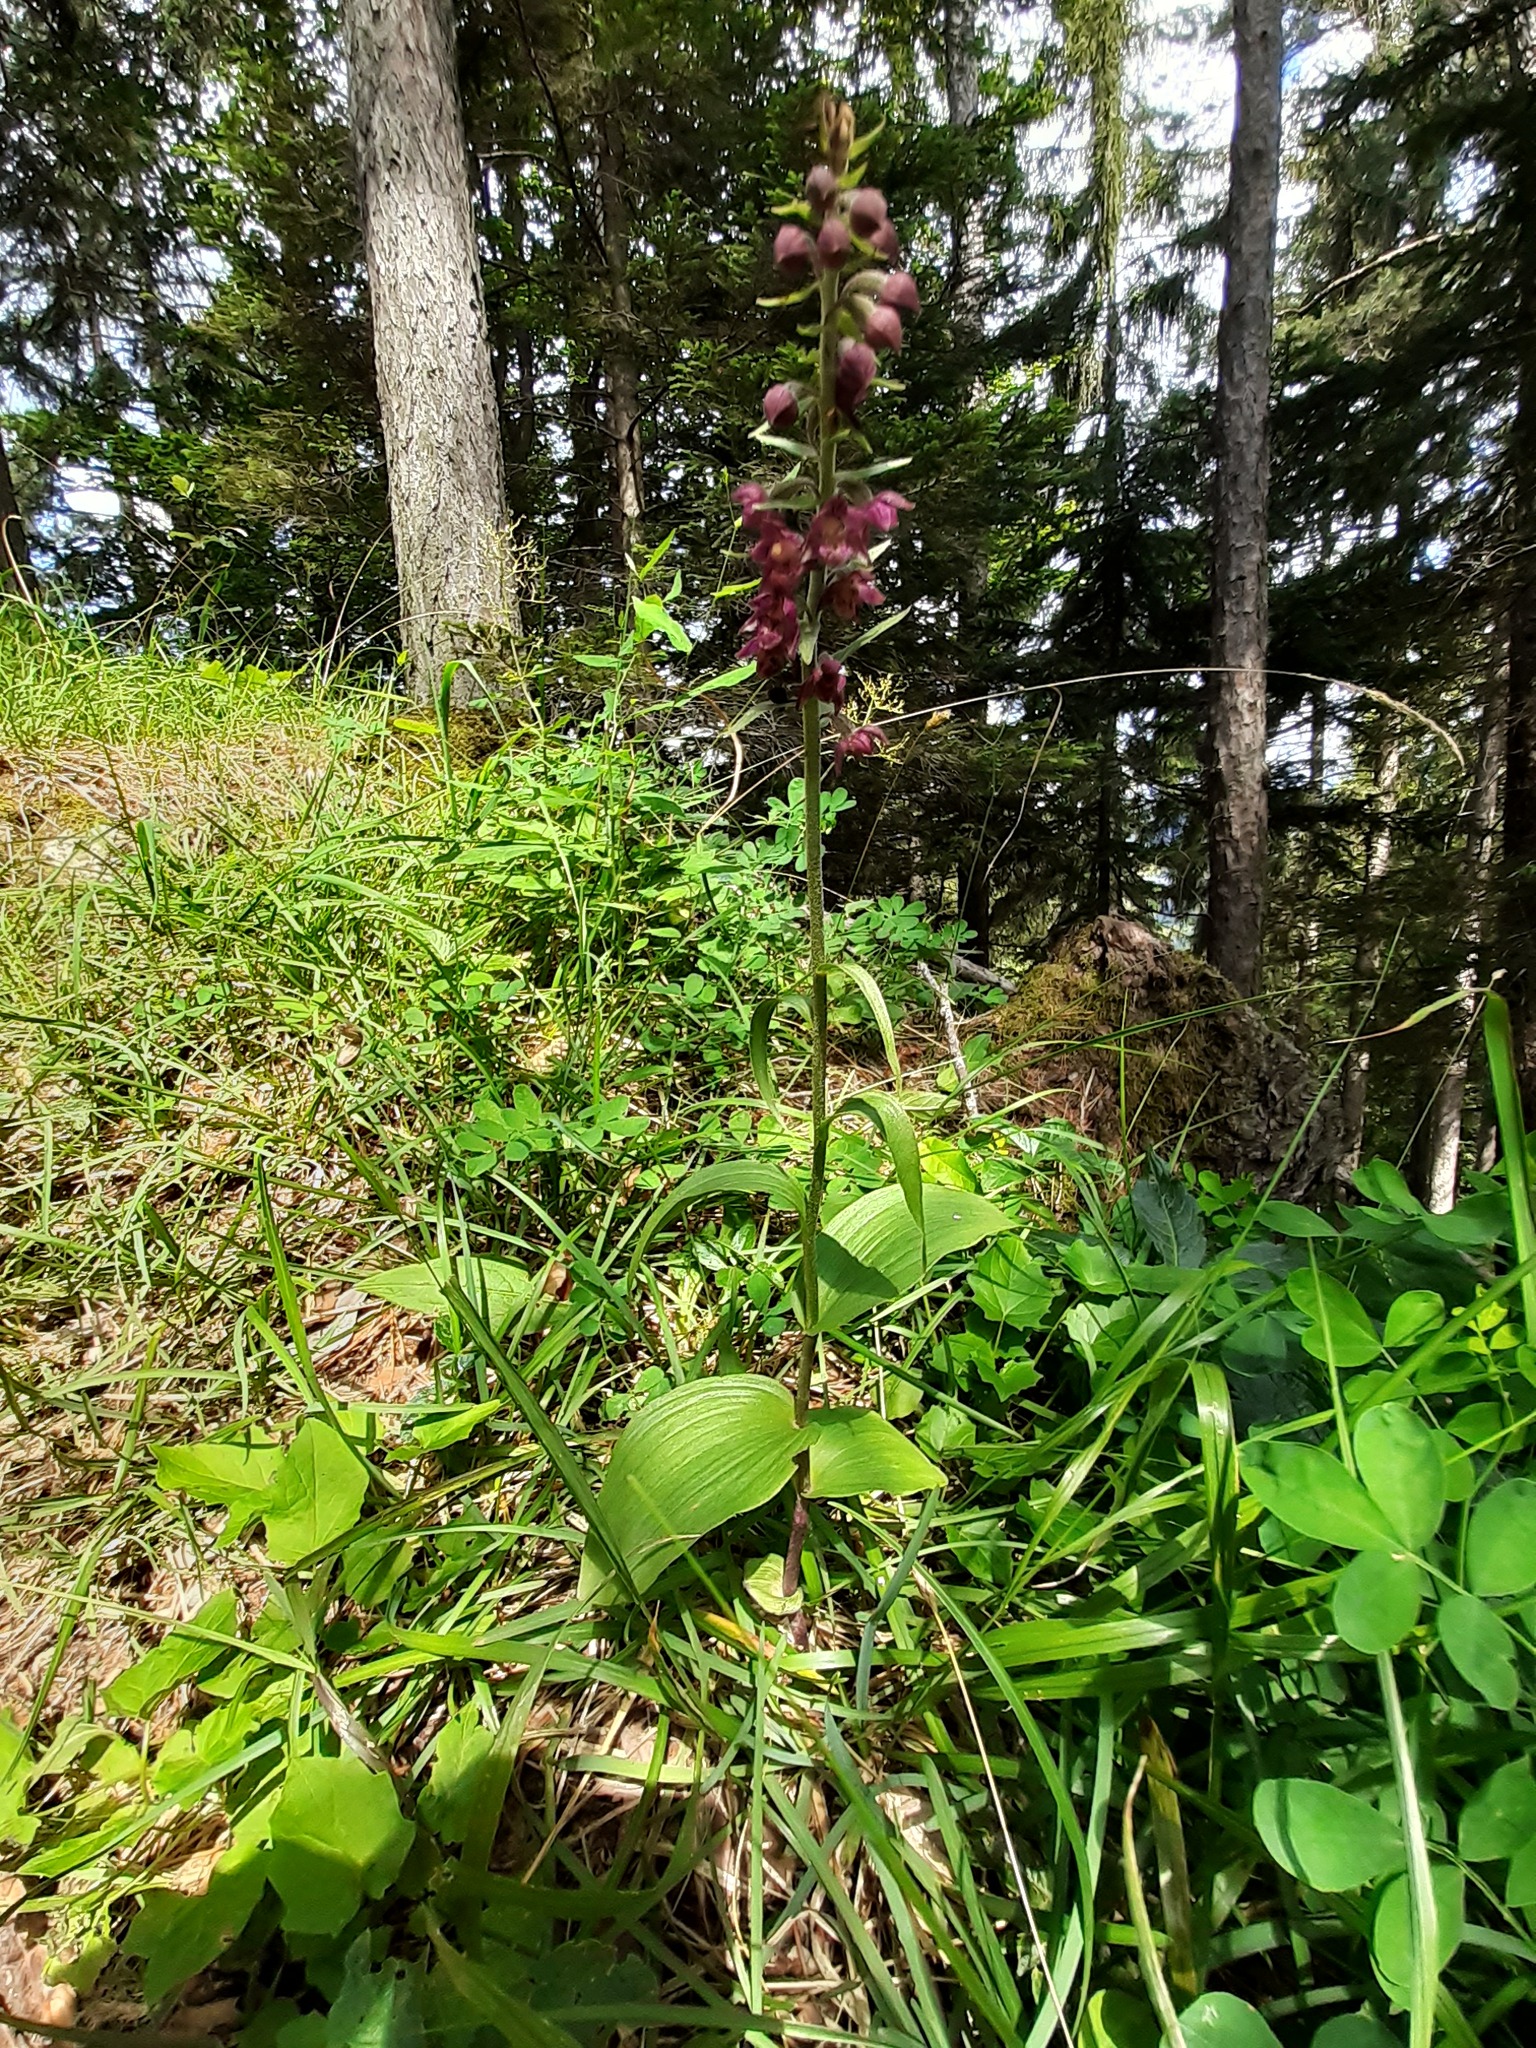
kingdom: Plantae
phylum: Tracheophyta
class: Liliopsida
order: Asparagales
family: Orchidaceae
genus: Epipactis
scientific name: Epipactis atrorubens
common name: Dark-red helleborine
